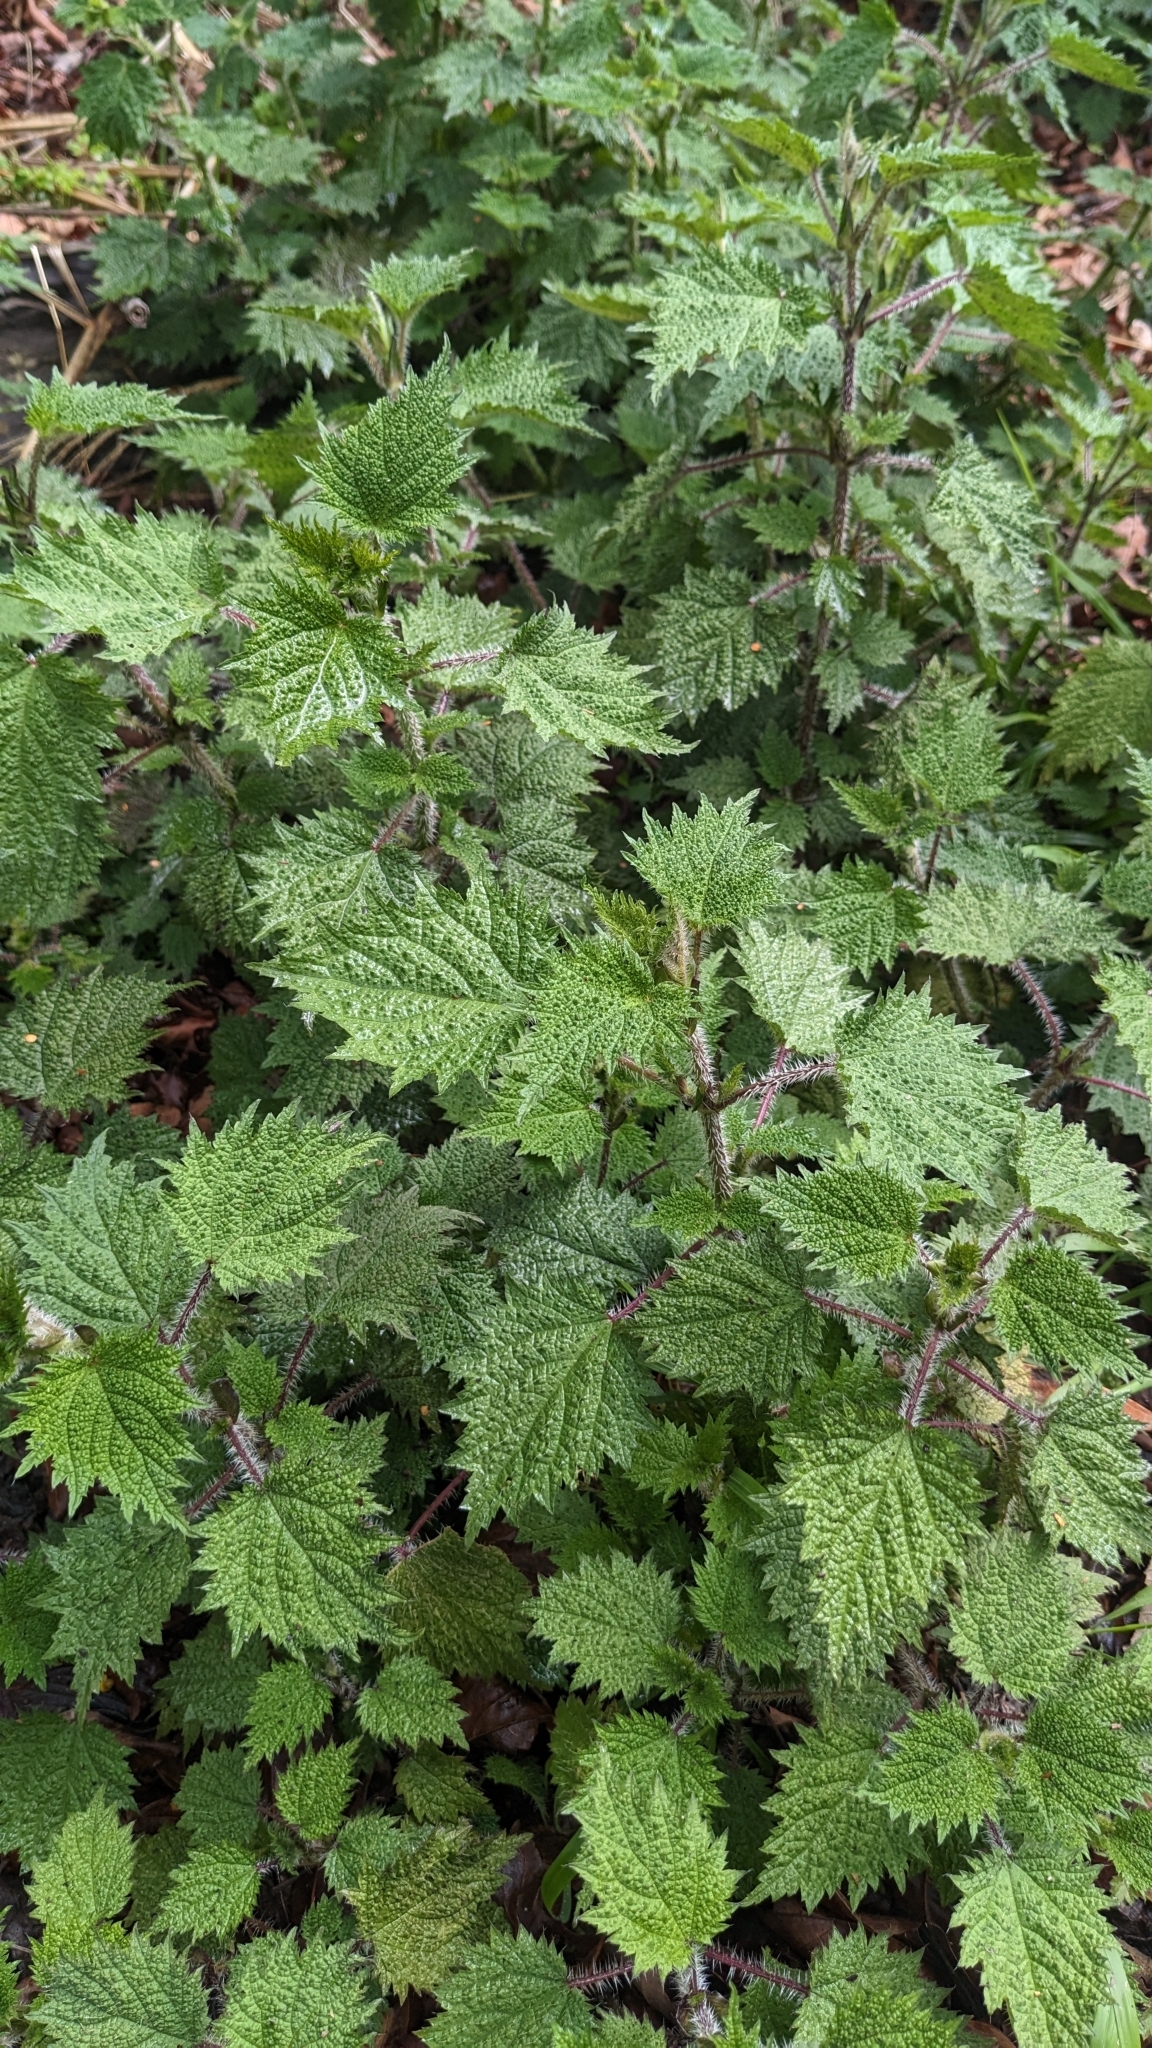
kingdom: Plantae
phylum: Tracheophyta
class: Magnoliopsida
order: Rosales
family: Urticaceae
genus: Urtica
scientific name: Urtica thunbergiana
